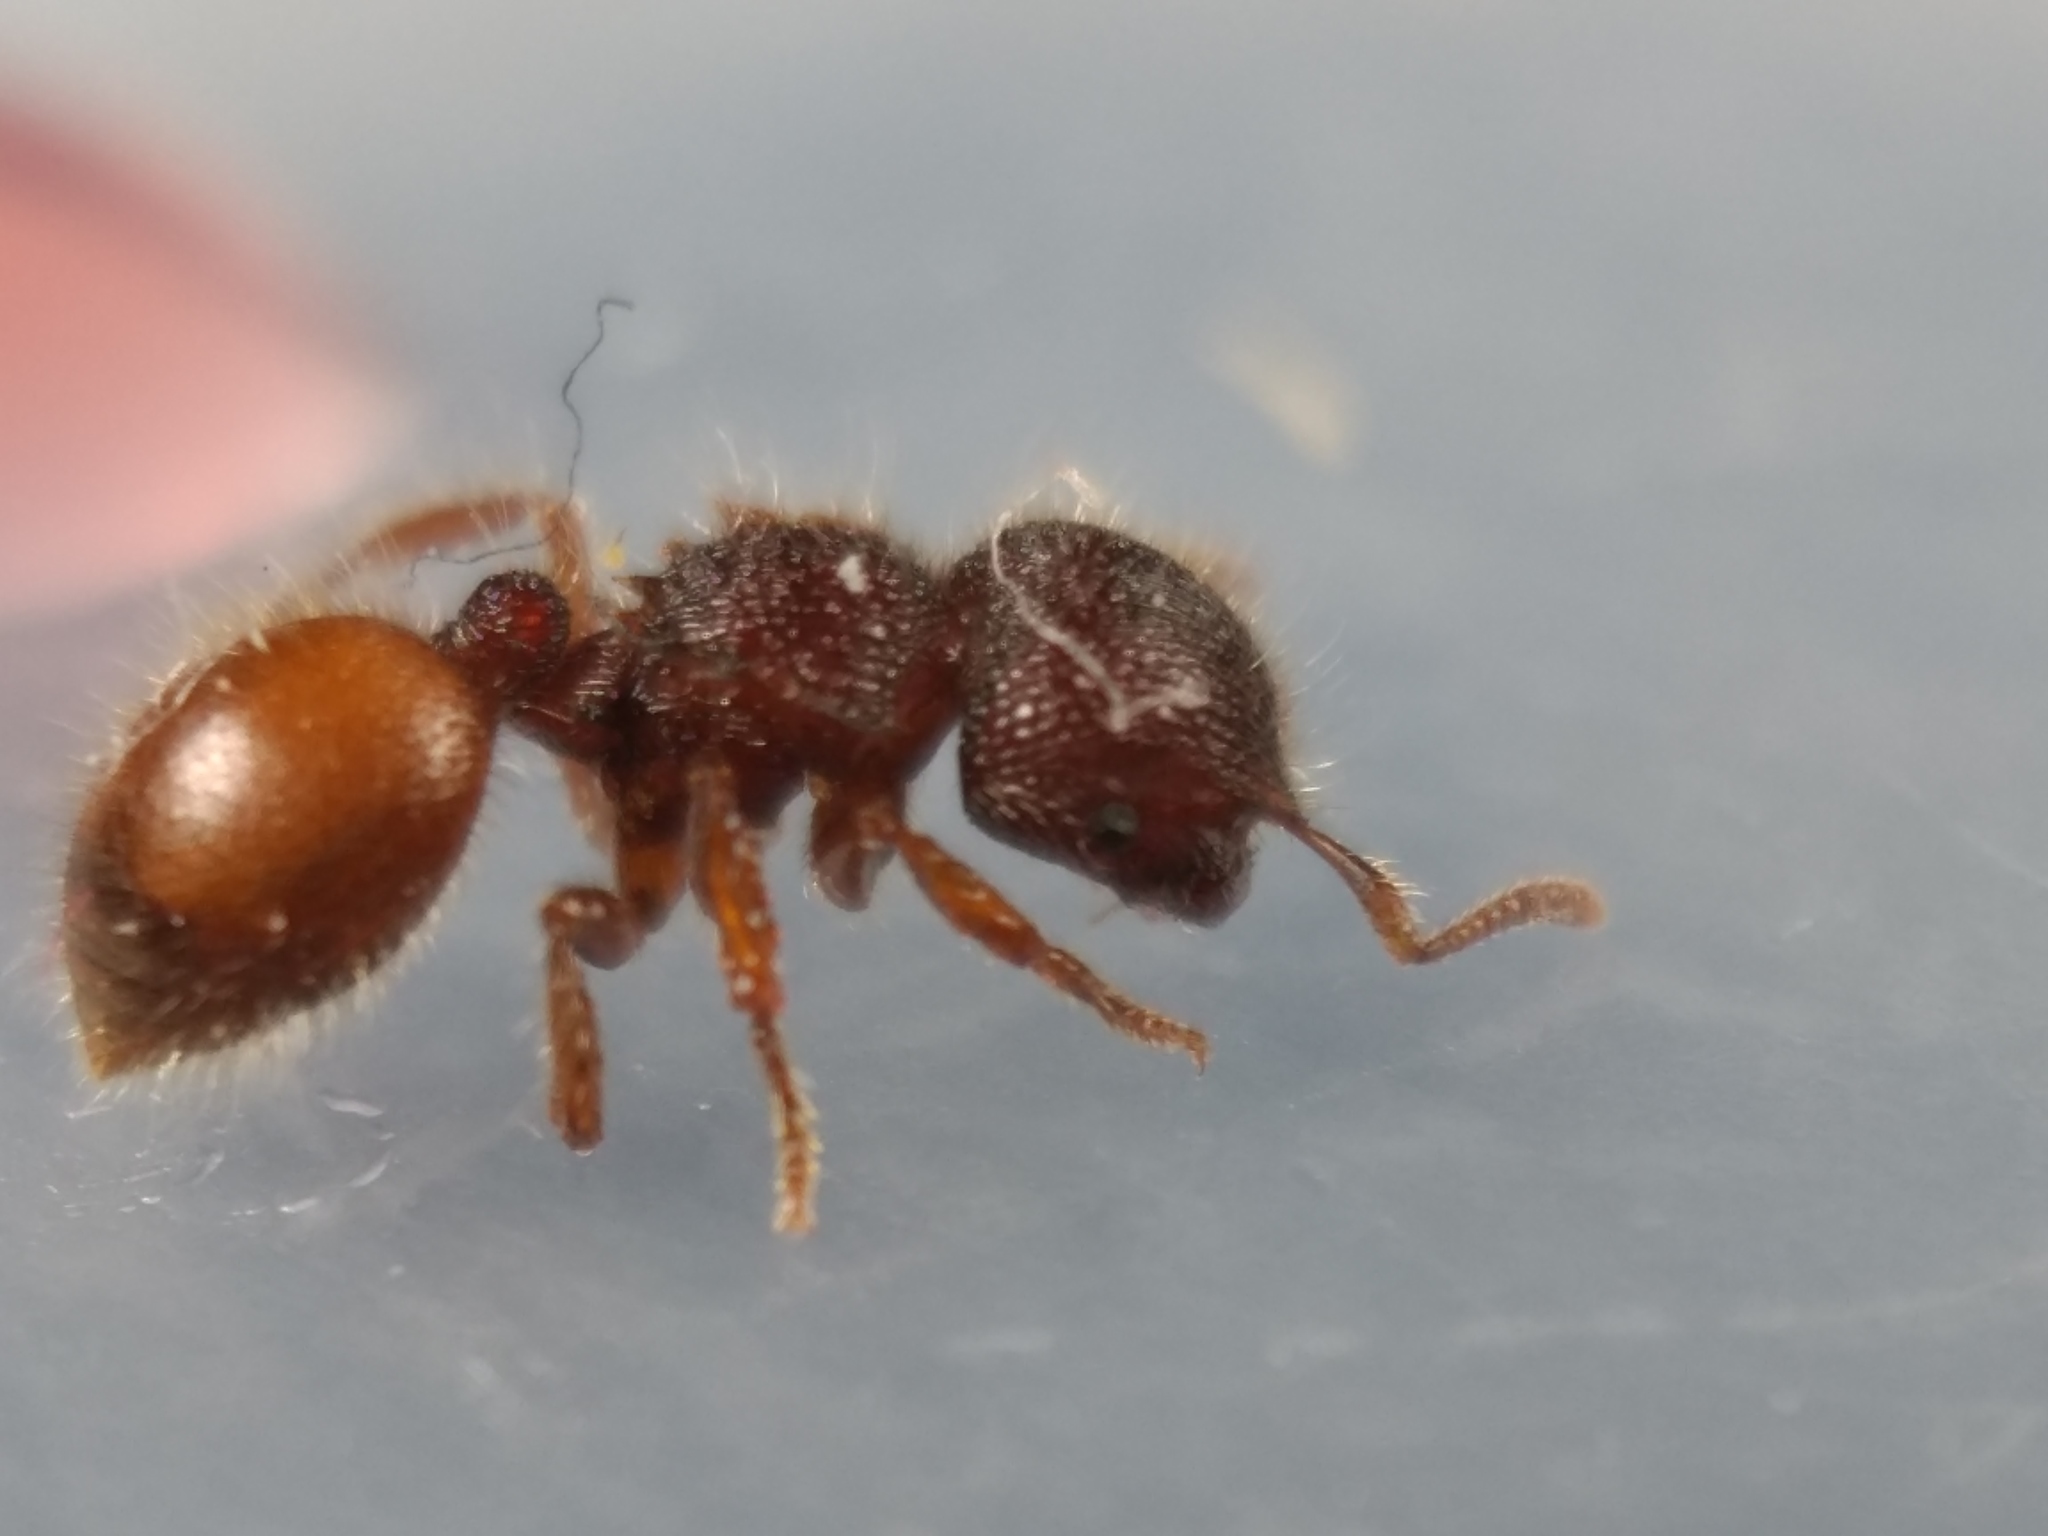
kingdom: Animalia
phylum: Arthropoda
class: Insecta
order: Hymenoptera
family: Formicidae
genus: Meranoplus
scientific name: Meranoplus wilsoni
